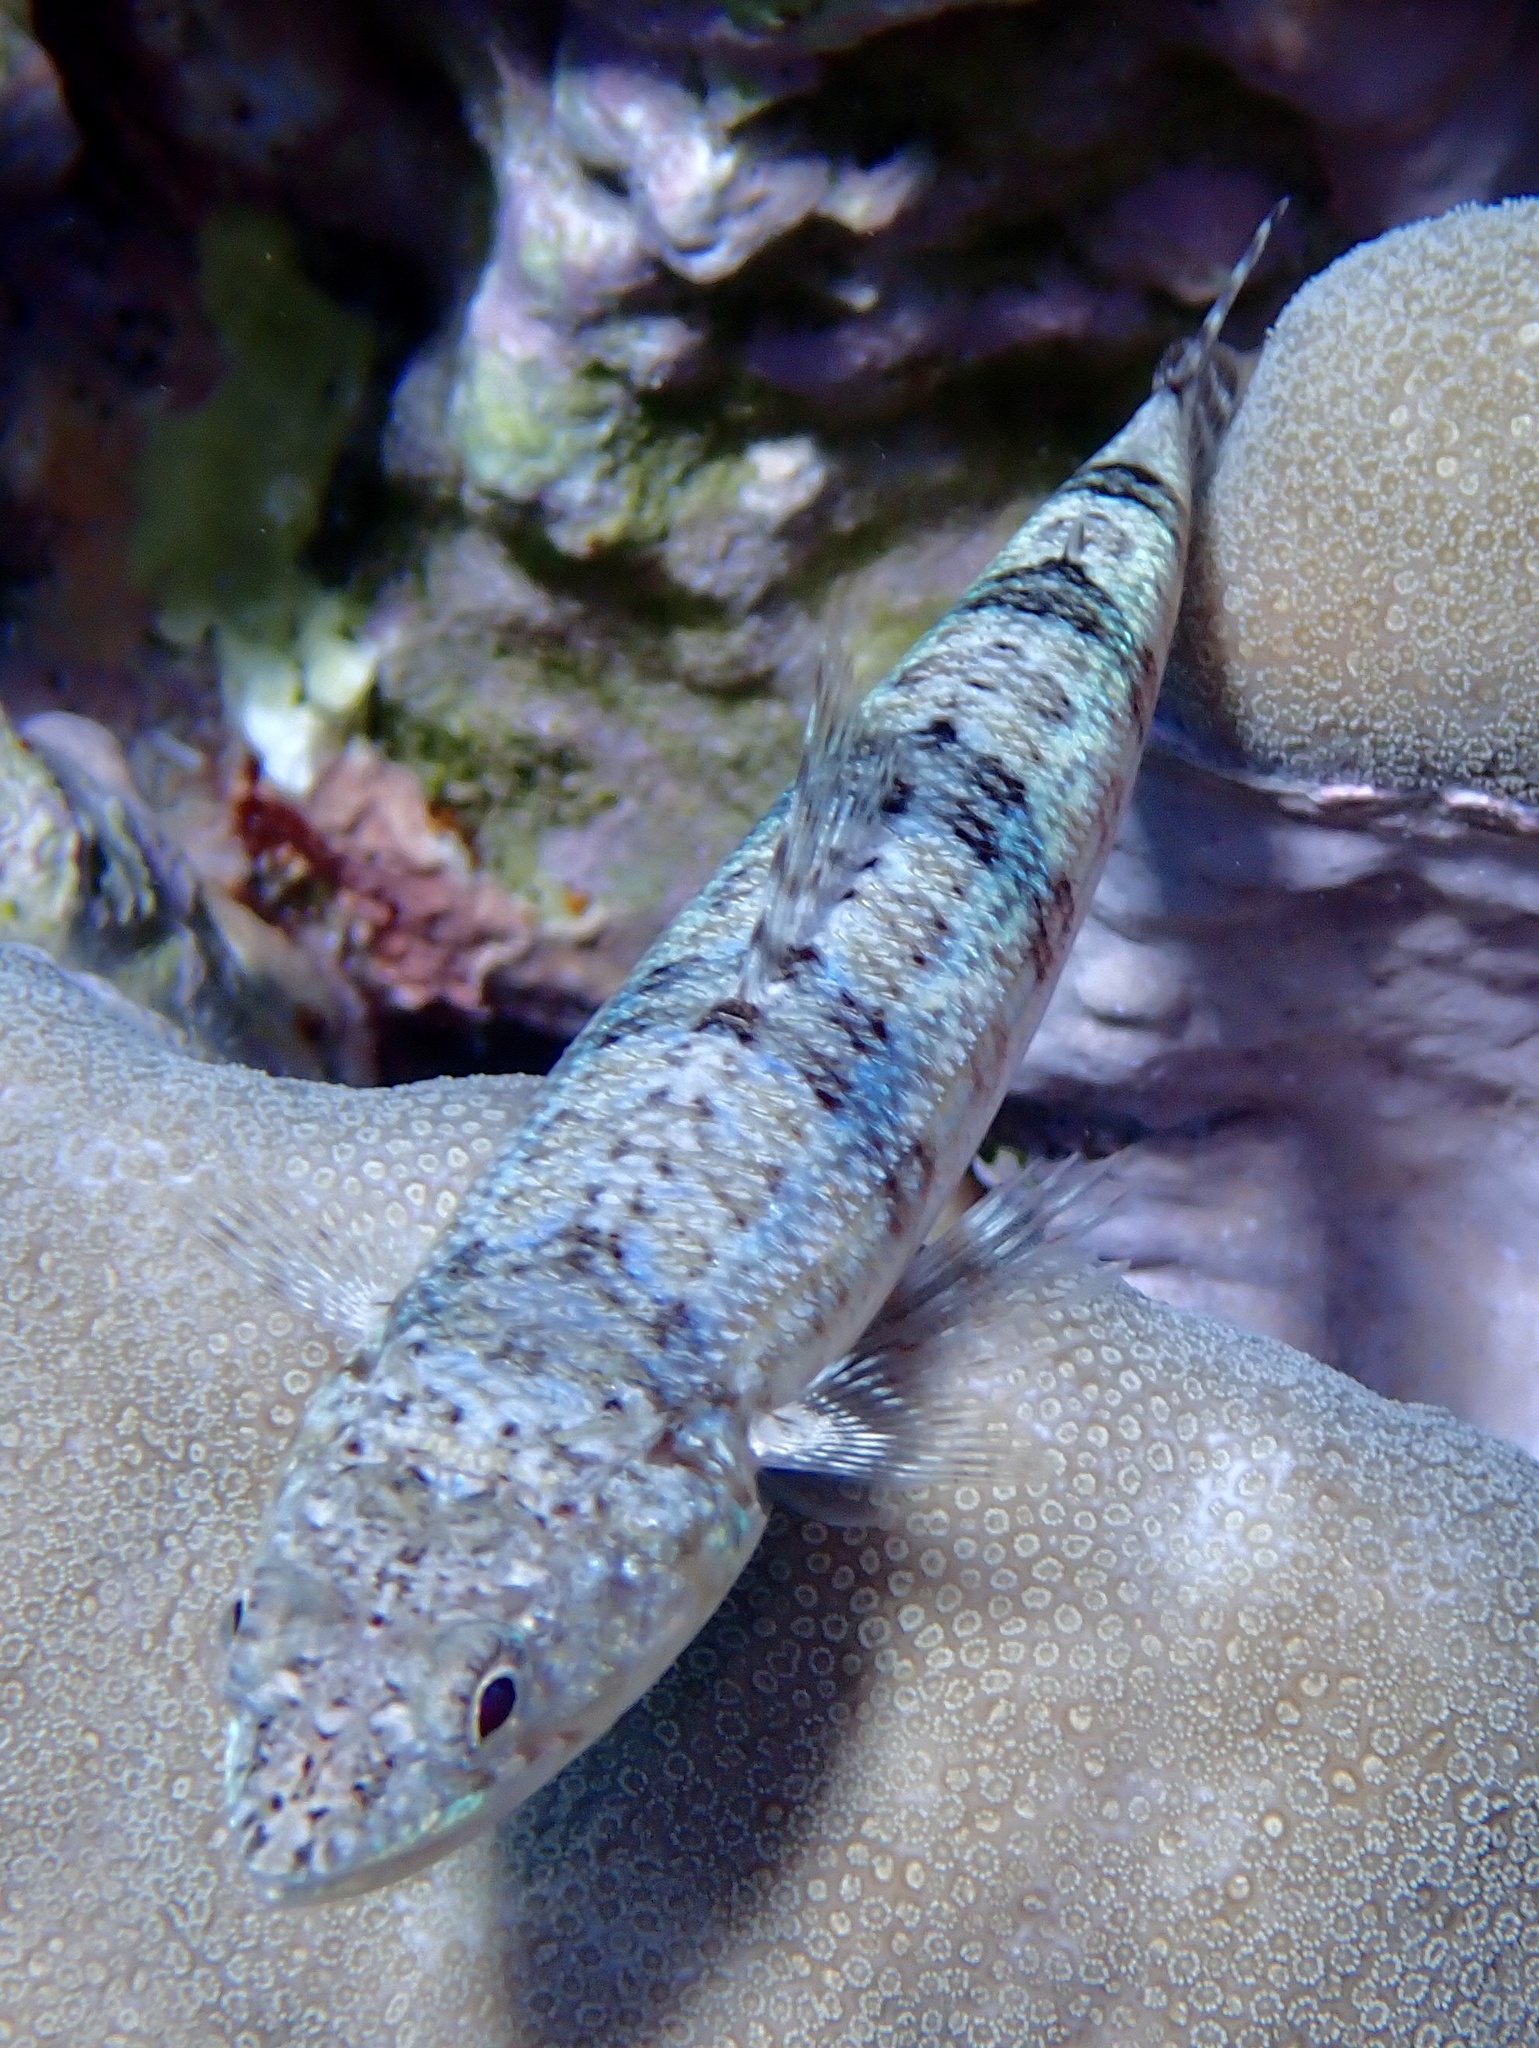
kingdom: Animalia
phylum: Chordata
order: Aulopiformes
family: Synodontidae
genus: Synodus
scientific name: Synodus dermatogenys
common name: Banded lizardfish
